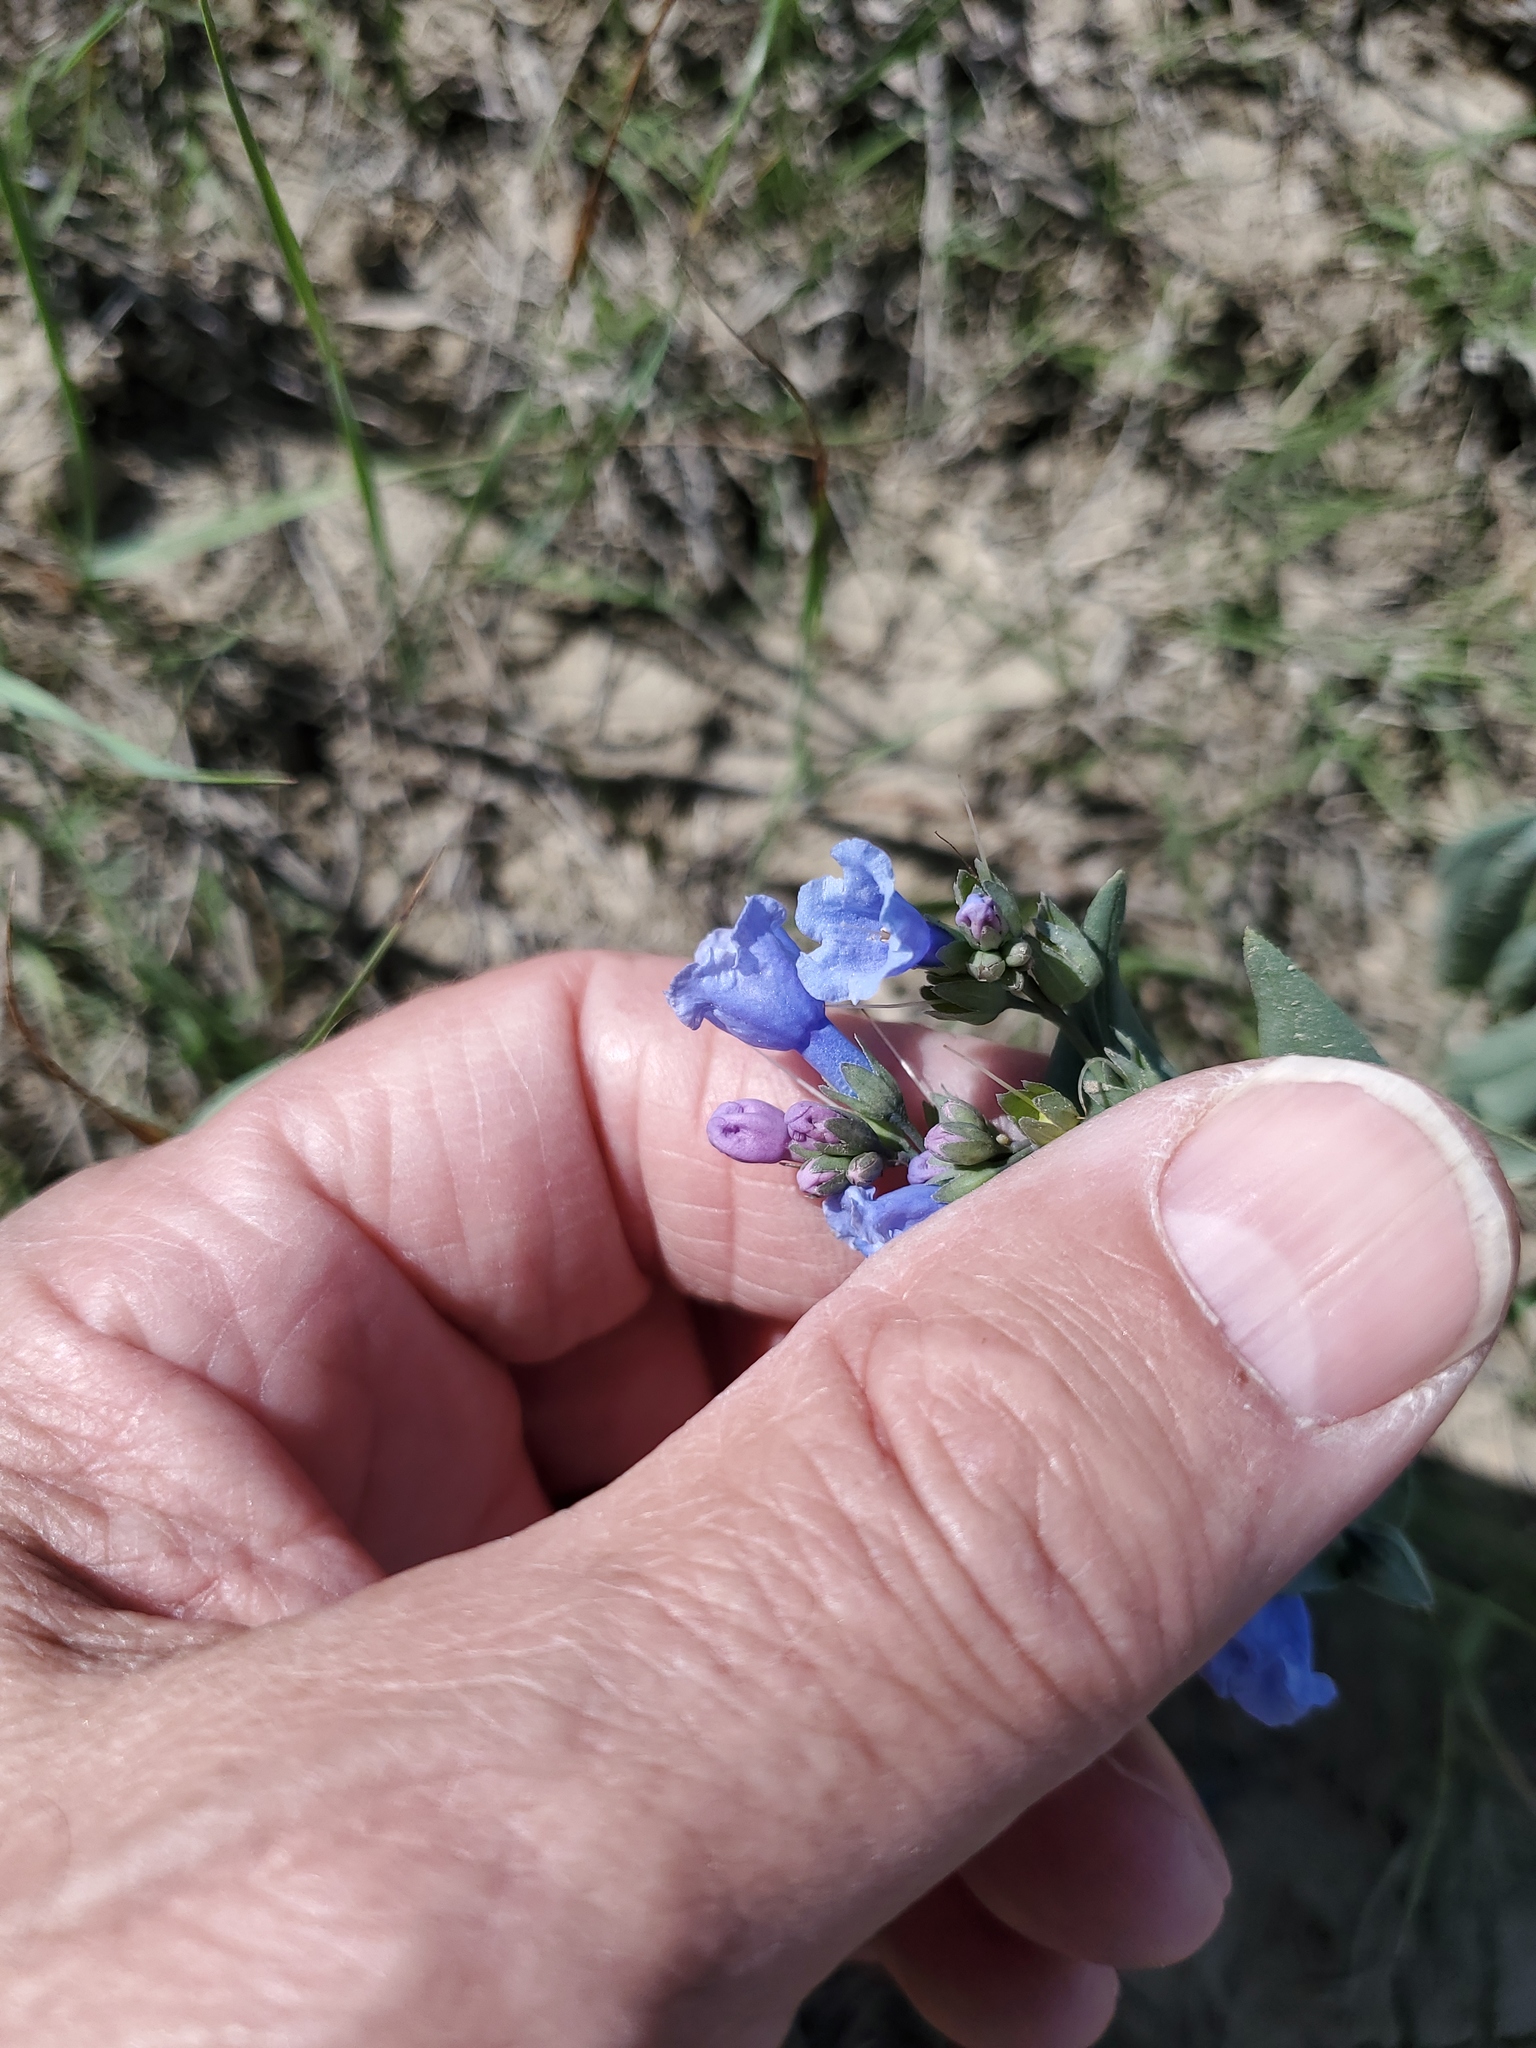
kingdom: Plantae
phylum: Tracheophyta
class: Magnoliopsida
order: Boraginales
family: Boraginaceae
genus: Mertensia
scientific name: Mertensia lanceolata
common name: Lance-leaved bluebells
